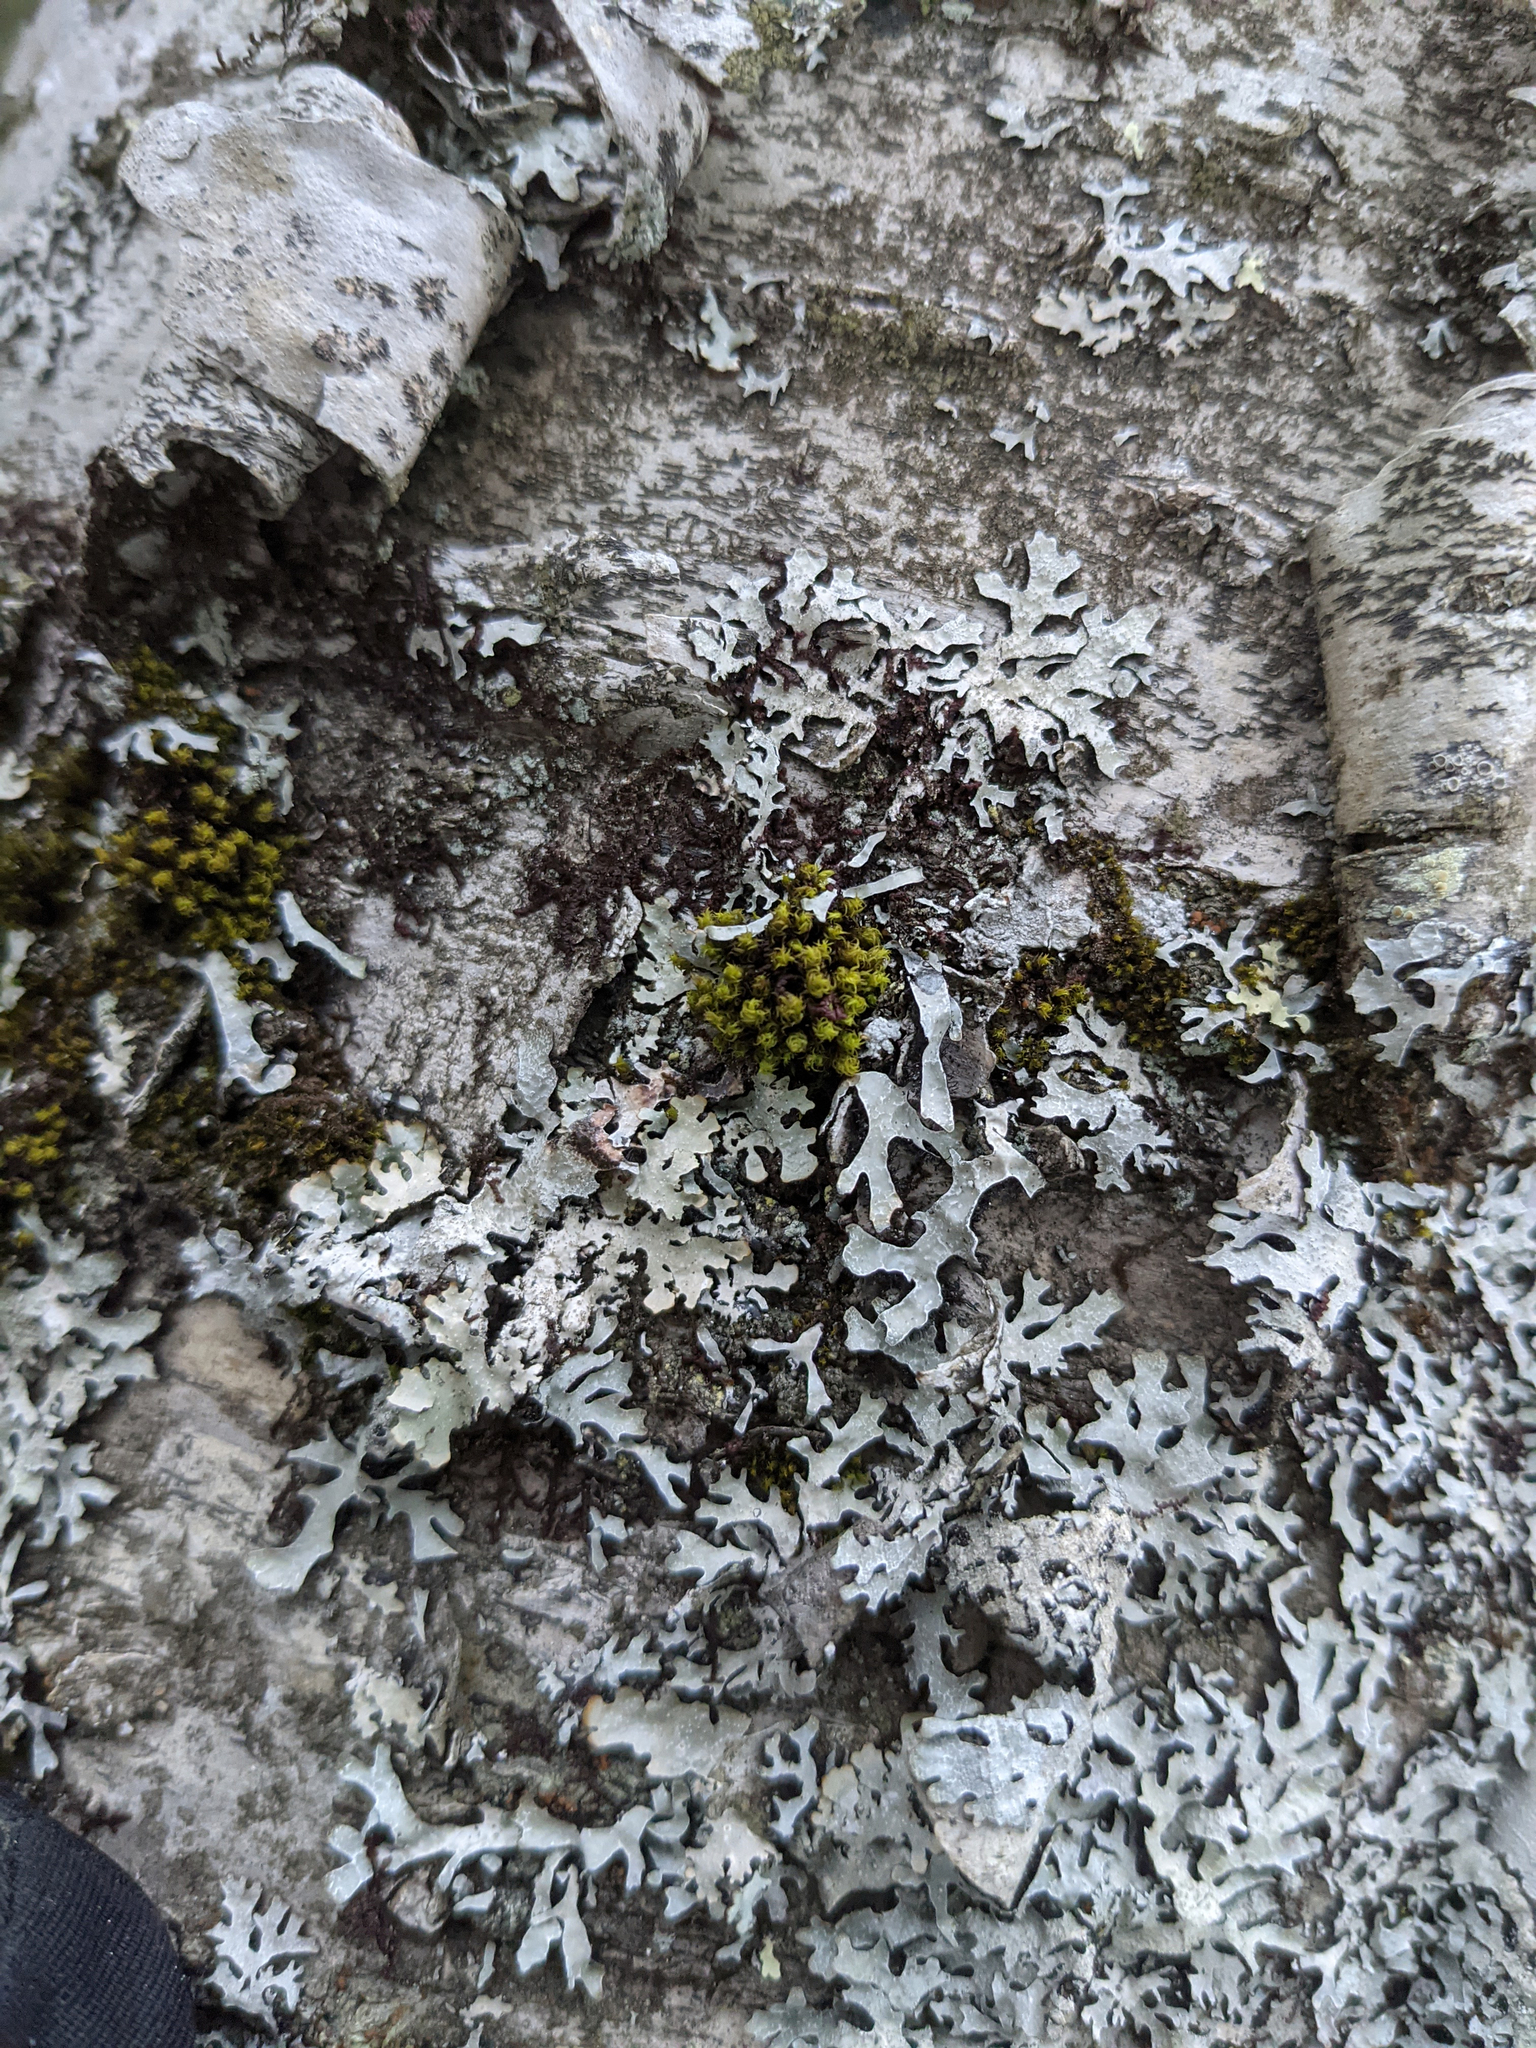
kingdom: Plantae
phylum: Bryophyta
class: Bryopsida
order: Orthotrichales
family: Orthotrichaceae
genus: Ulota
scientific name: Ulota crispa
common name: Crisped pincushion moss
